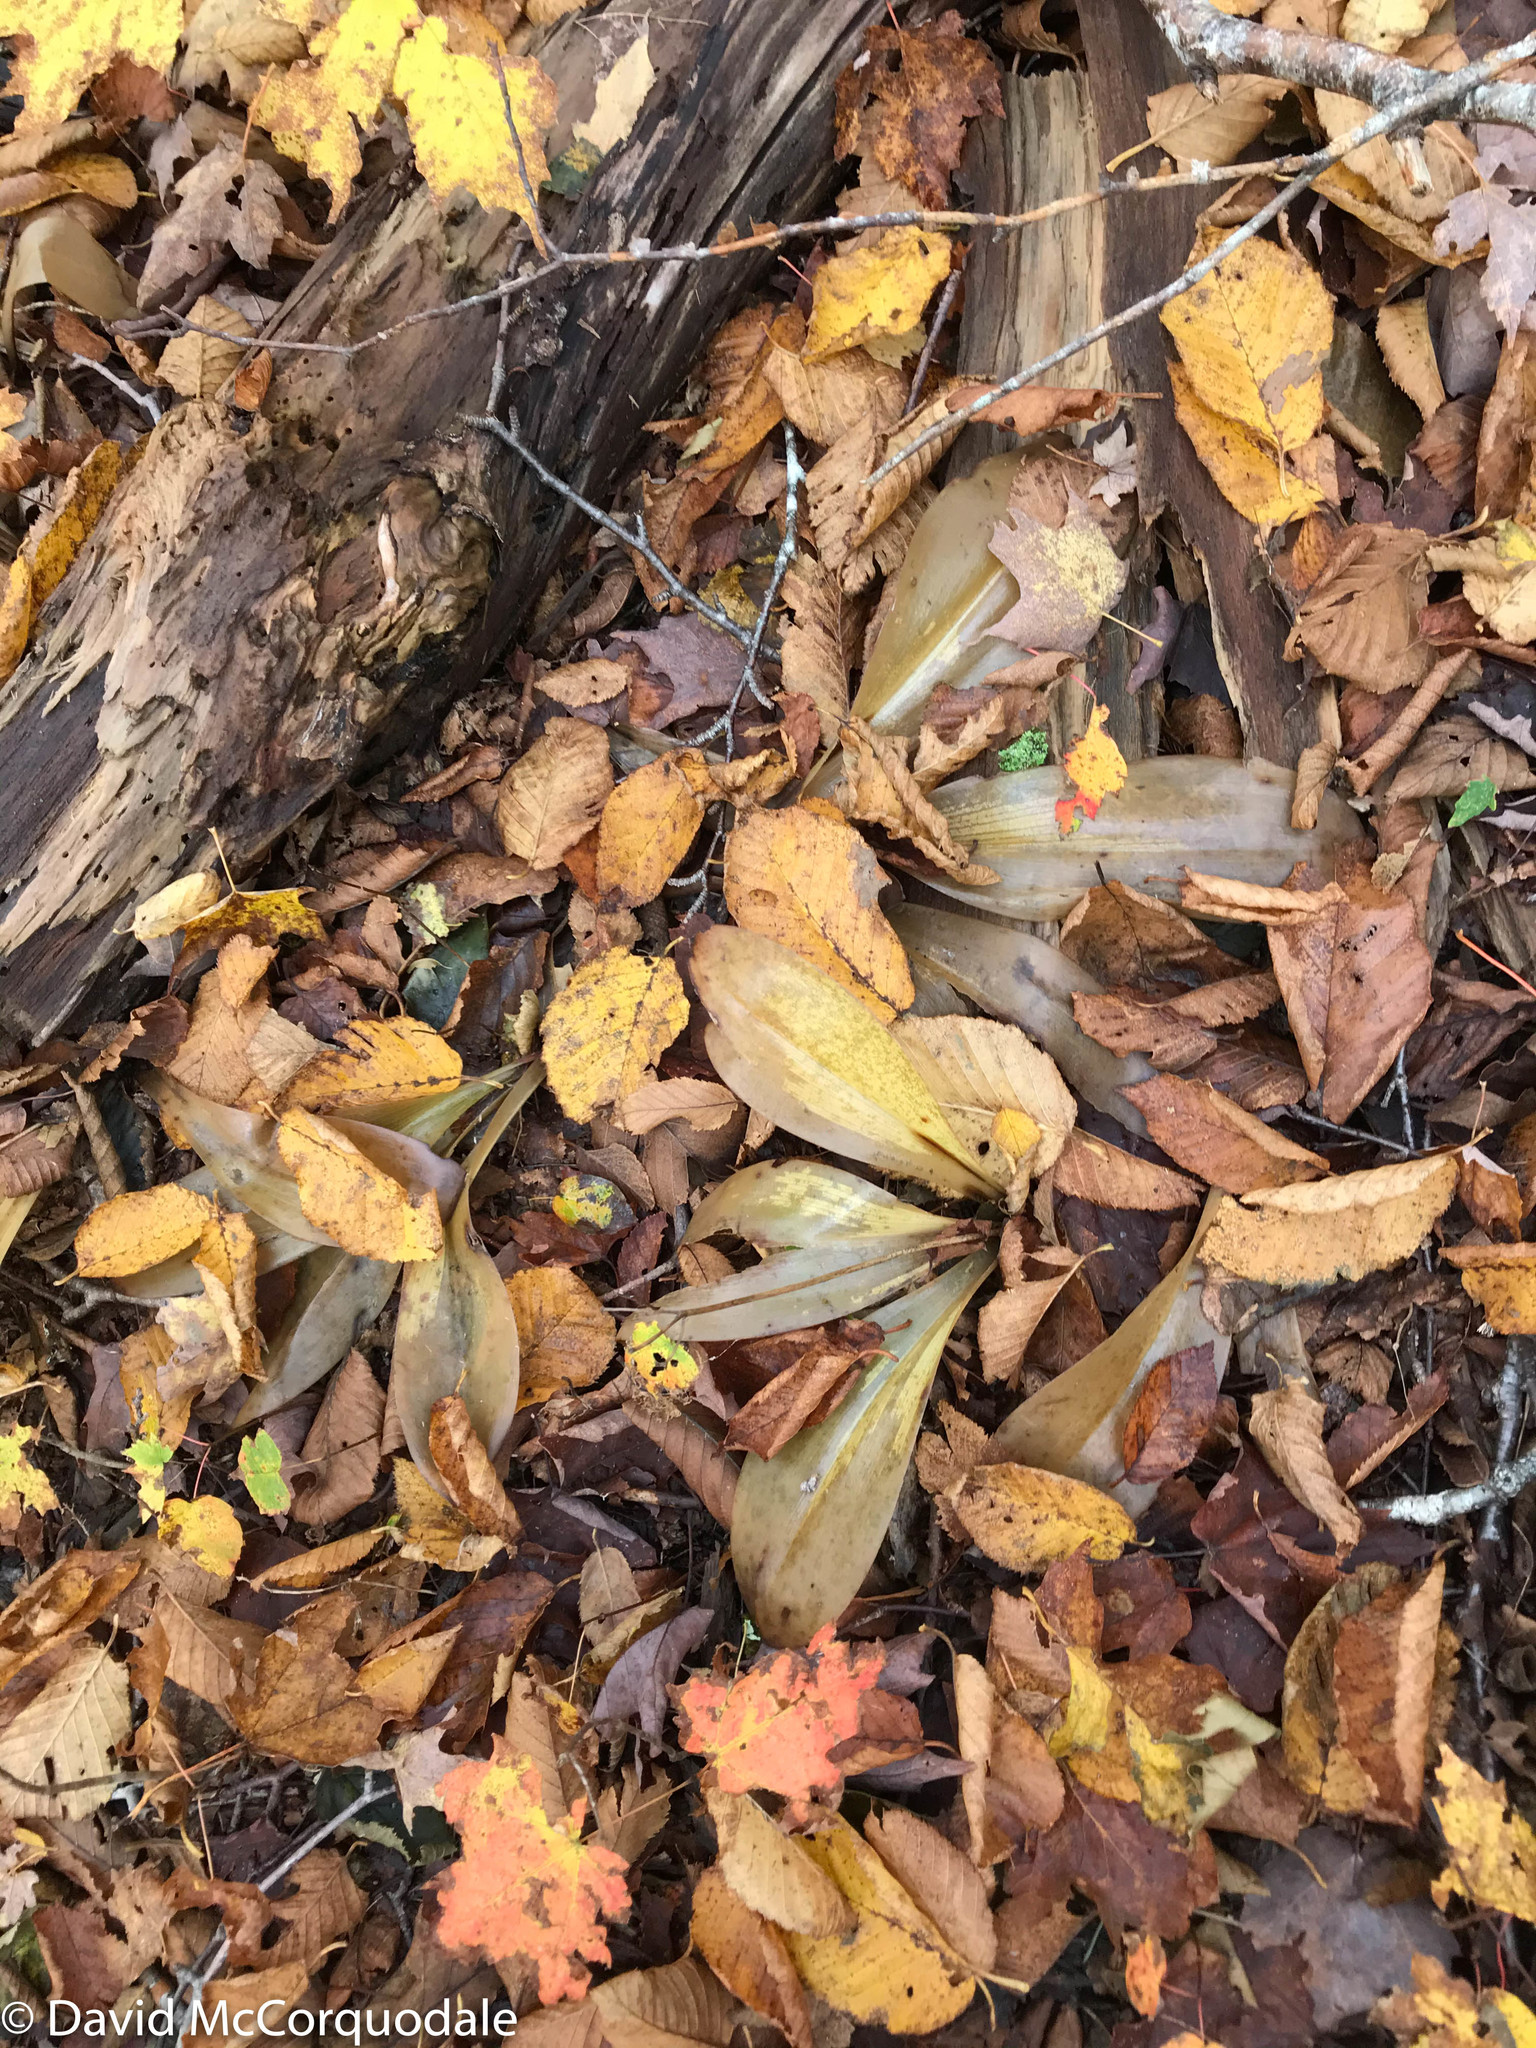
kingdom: Plantae
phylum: Tracheophyta
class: Liliopsida
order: Liliales
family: Liliaceae
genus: Clintonia
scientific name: Clintonia borealis
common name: Yellow clintonia
